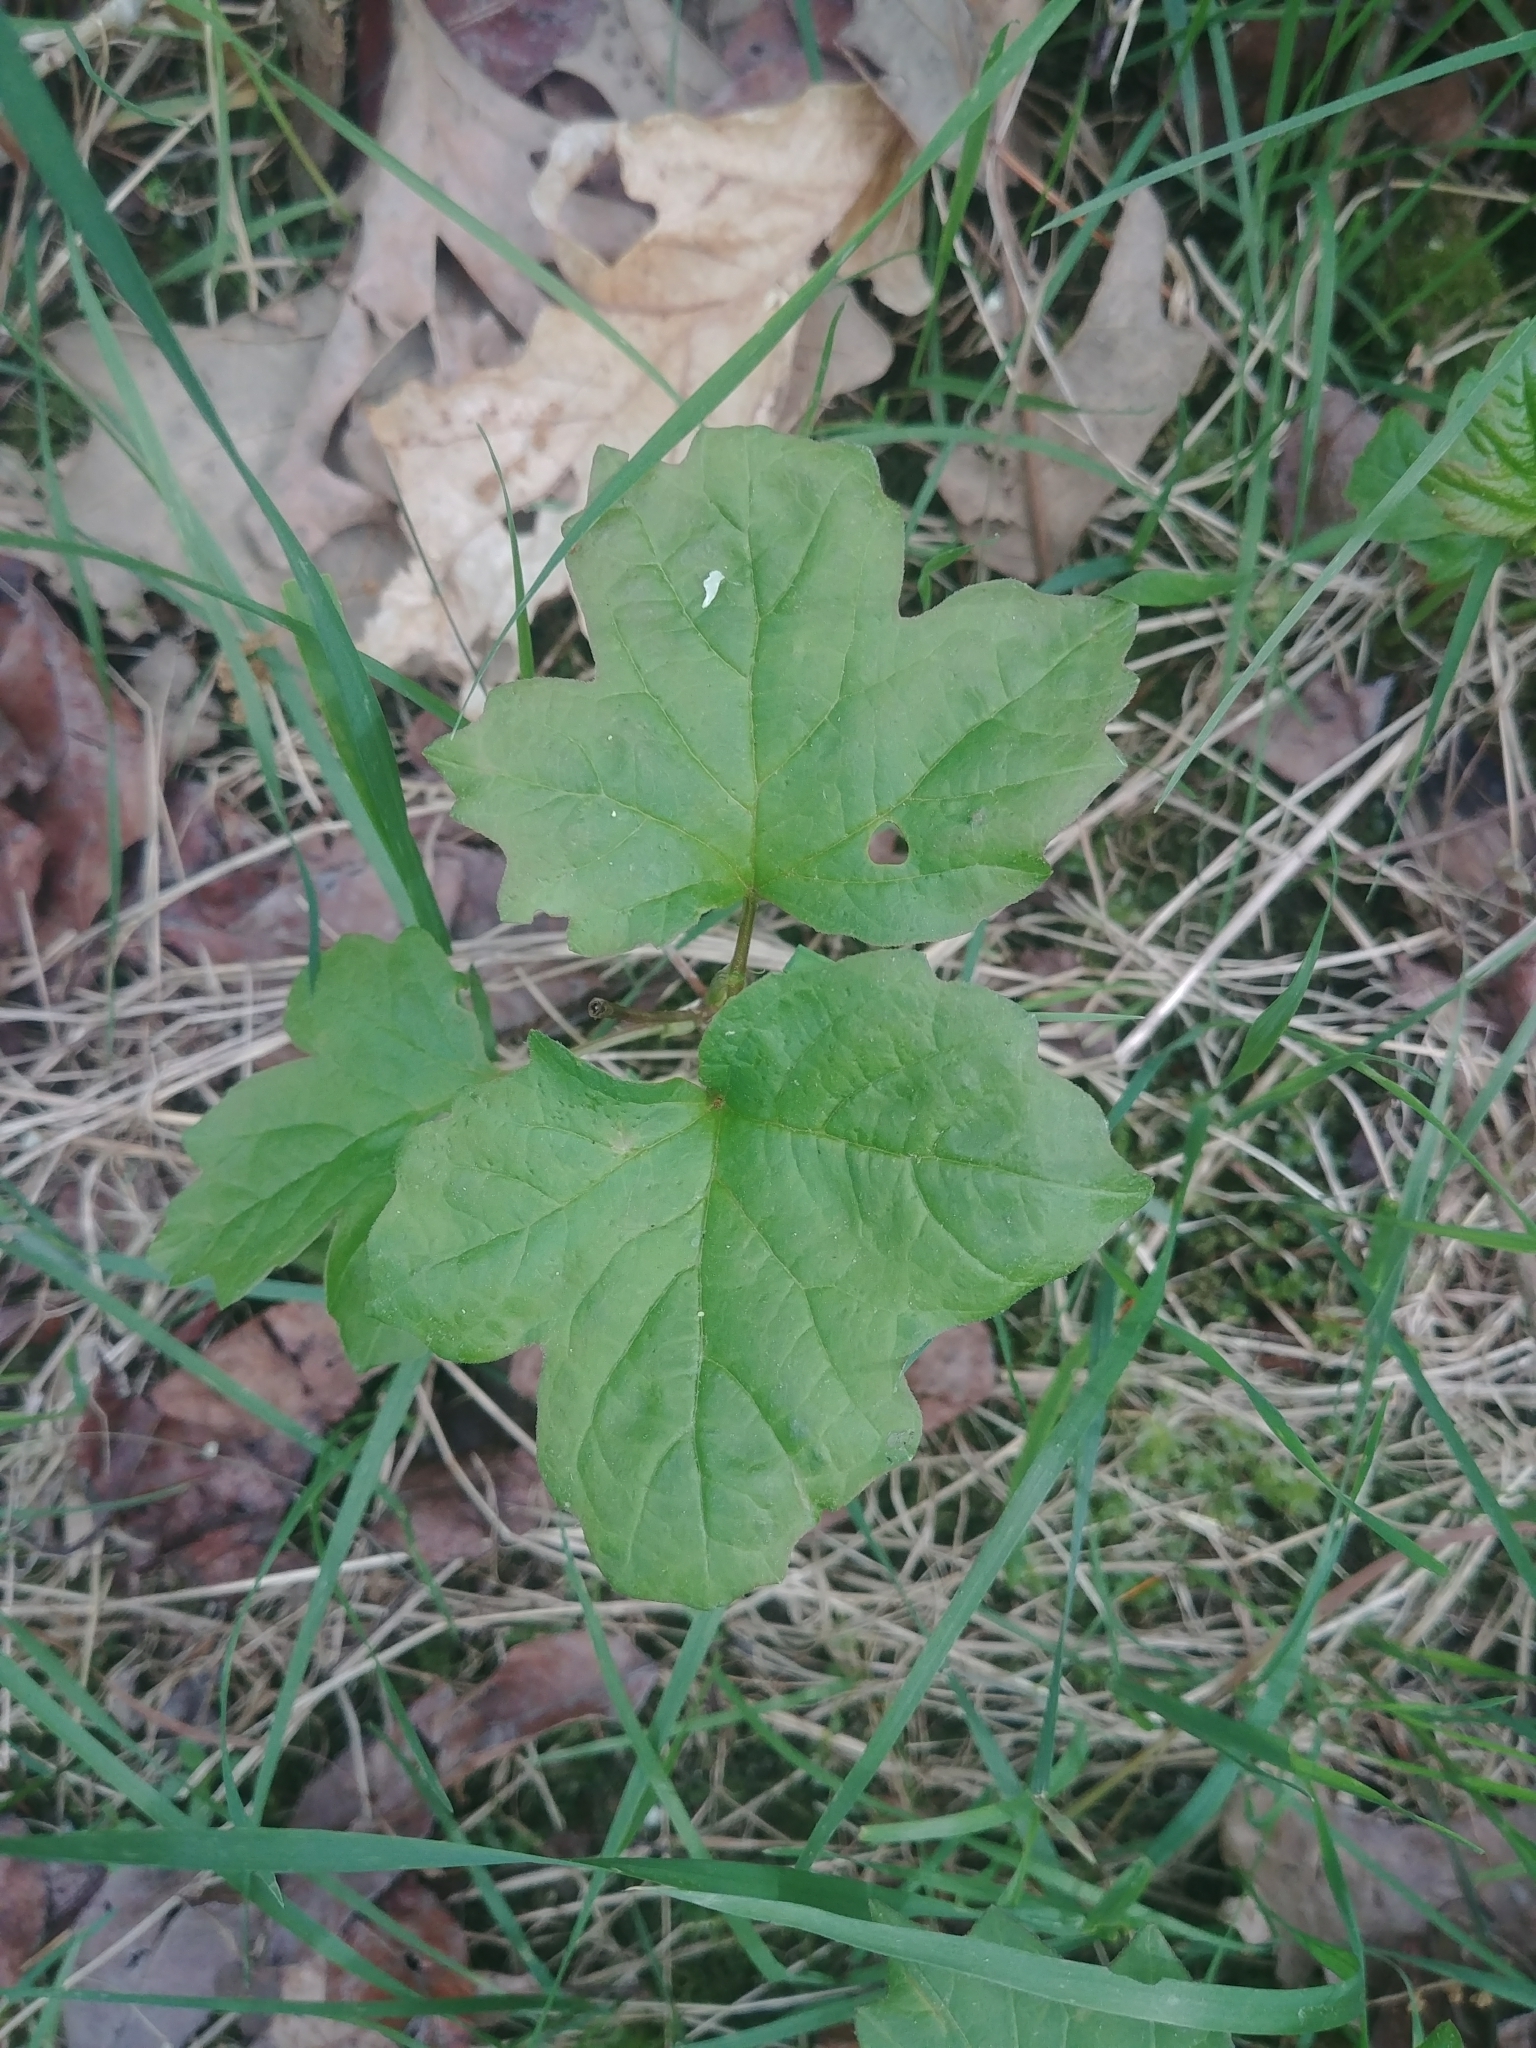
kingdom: Plantae
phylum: Tracheophyta
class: Magnoliopsida
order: Dipsacales
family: Viburnaceae
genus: Viburnum
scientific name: Viburnum opulus
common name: Guelder-rose
